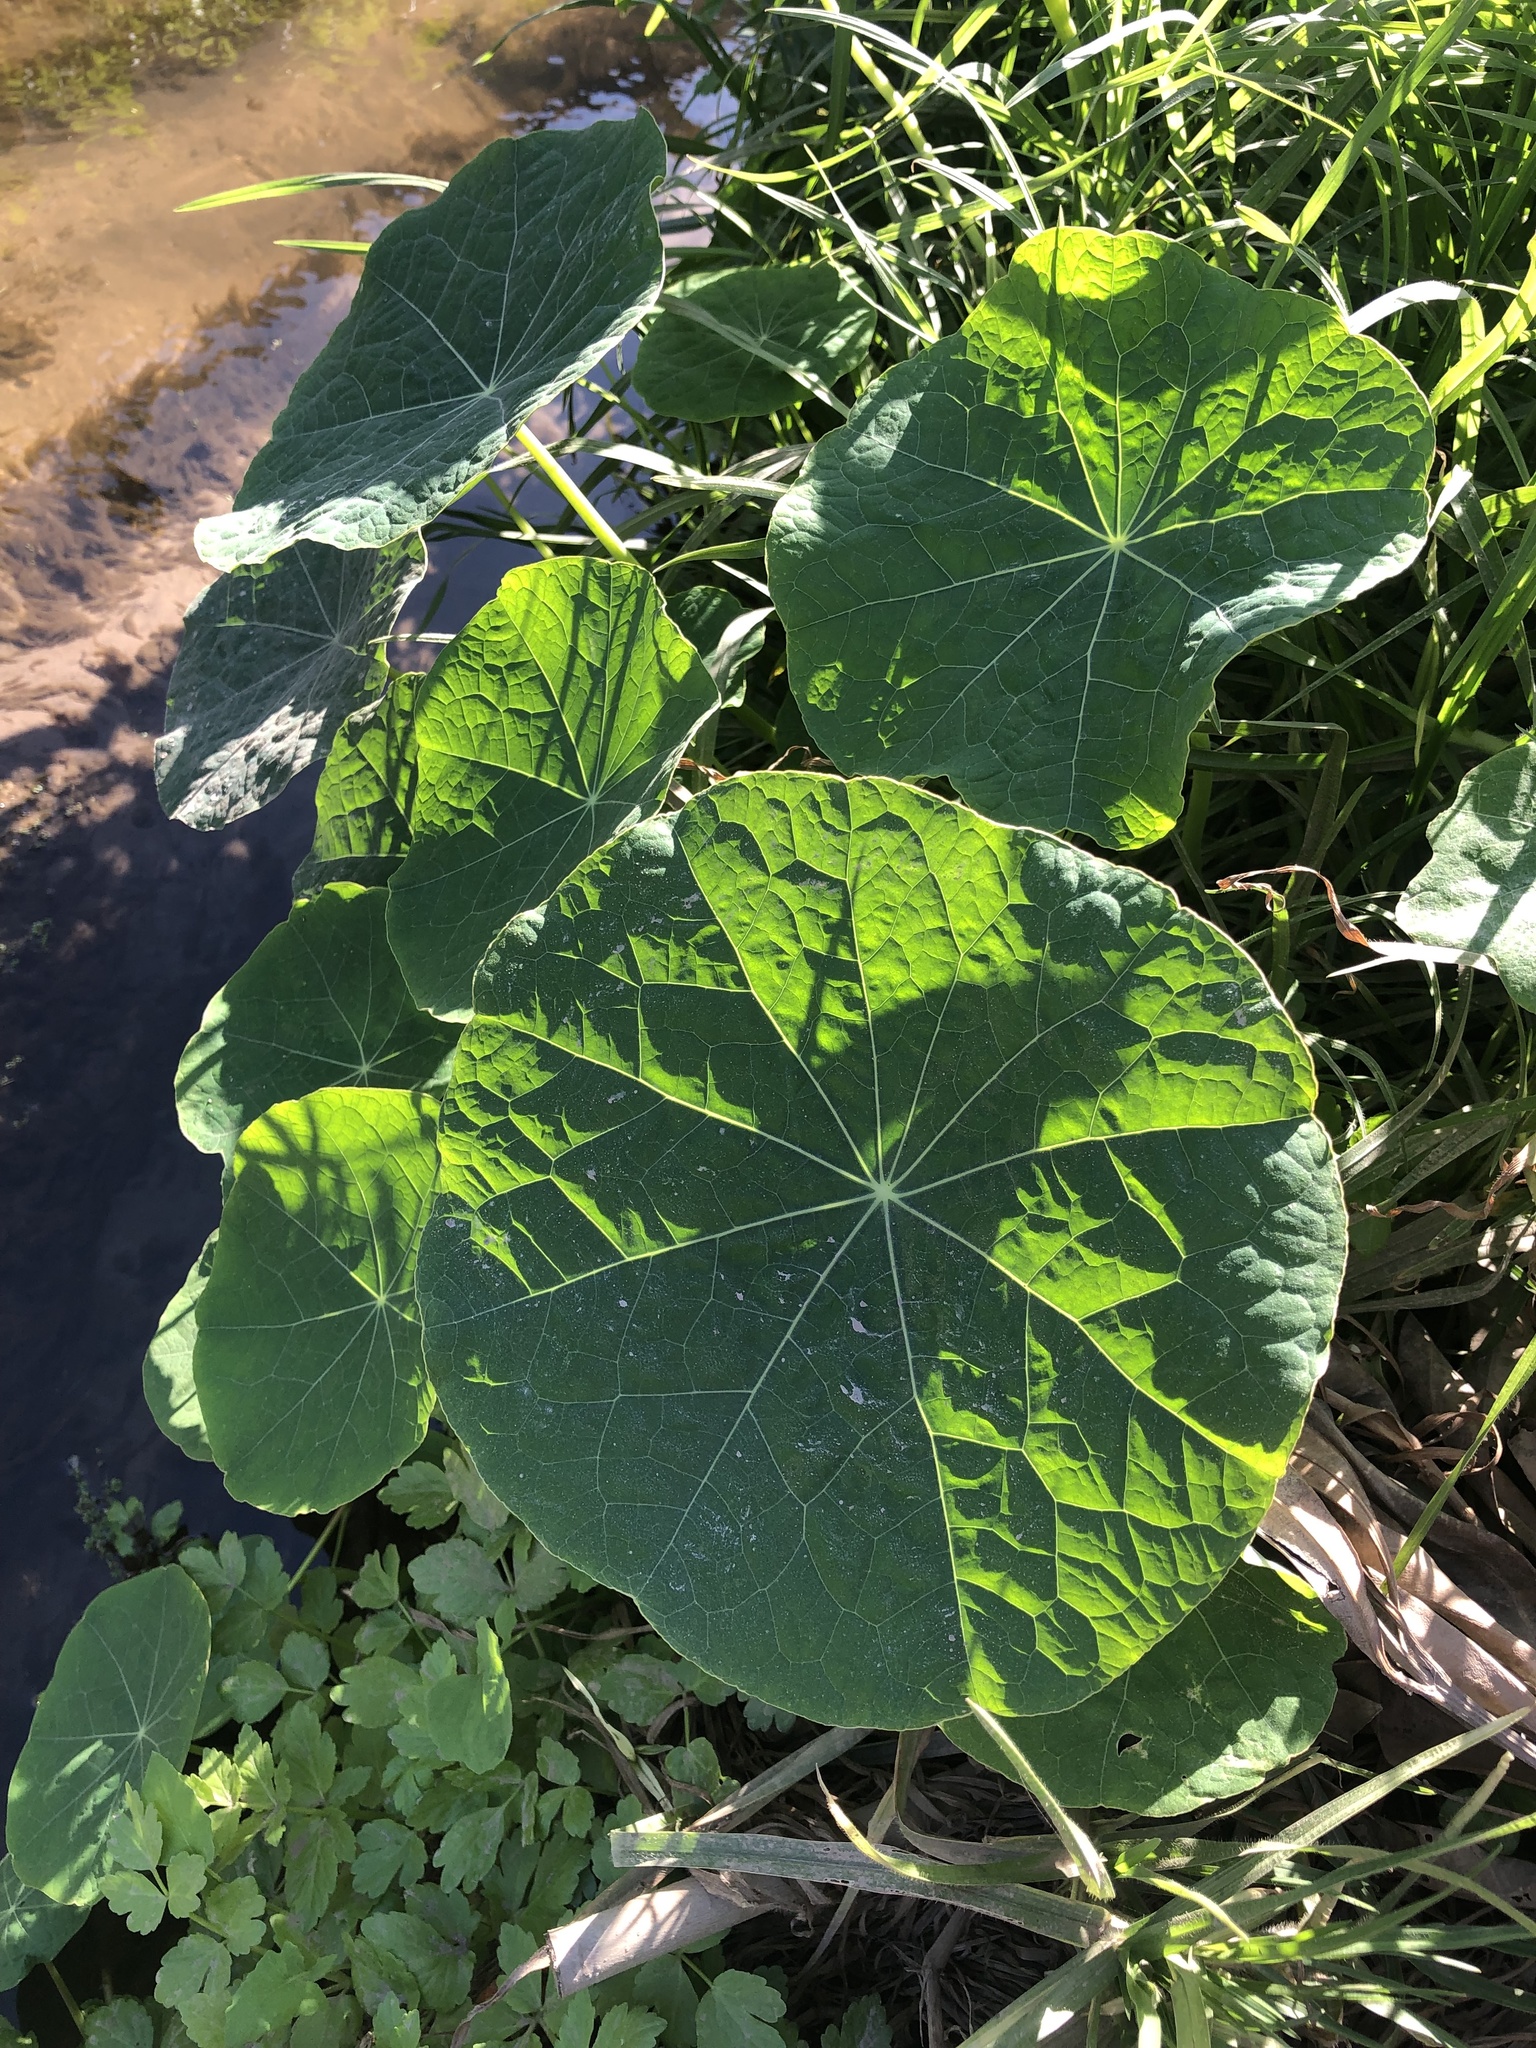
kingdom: Plantae
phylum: Tracheophyta
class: Magnoliopsida
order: Brassicales
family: Tropaeolaceae
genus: Tropaeolum
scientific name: Tropaeolum majus
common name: Nasturtium
